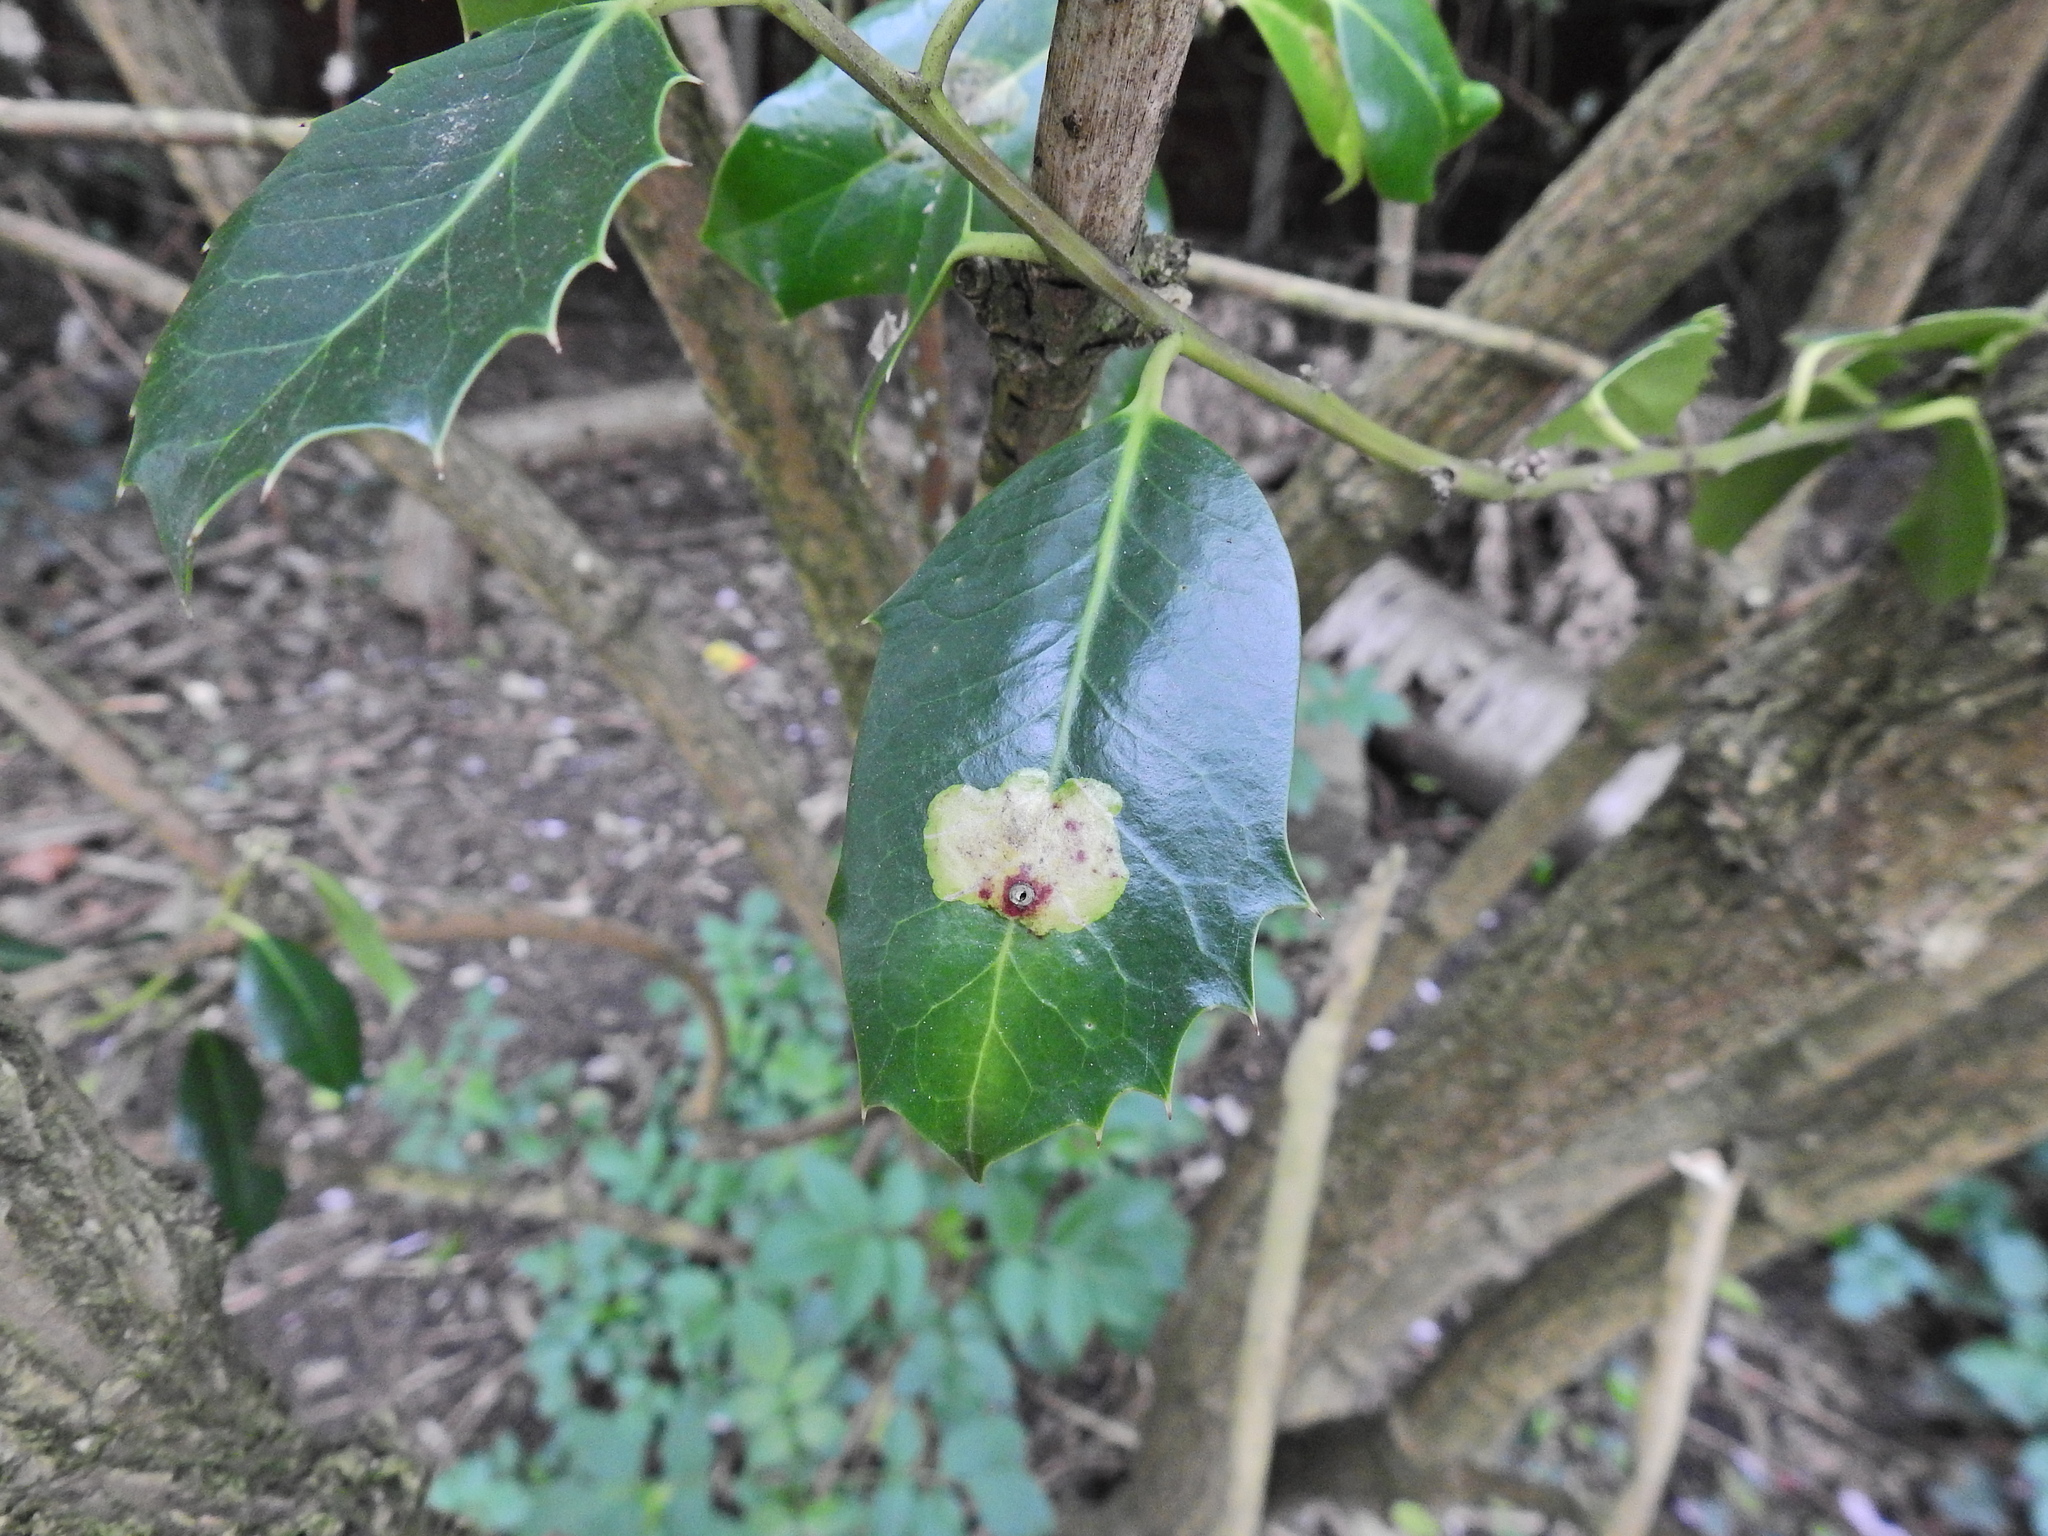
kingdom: Animalia
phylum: Arthropoda
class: Insecta
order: Diptera
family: Agromyzidae
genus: Phytomyza
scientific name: Phytomyza ilicis
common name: Holly leafminer
